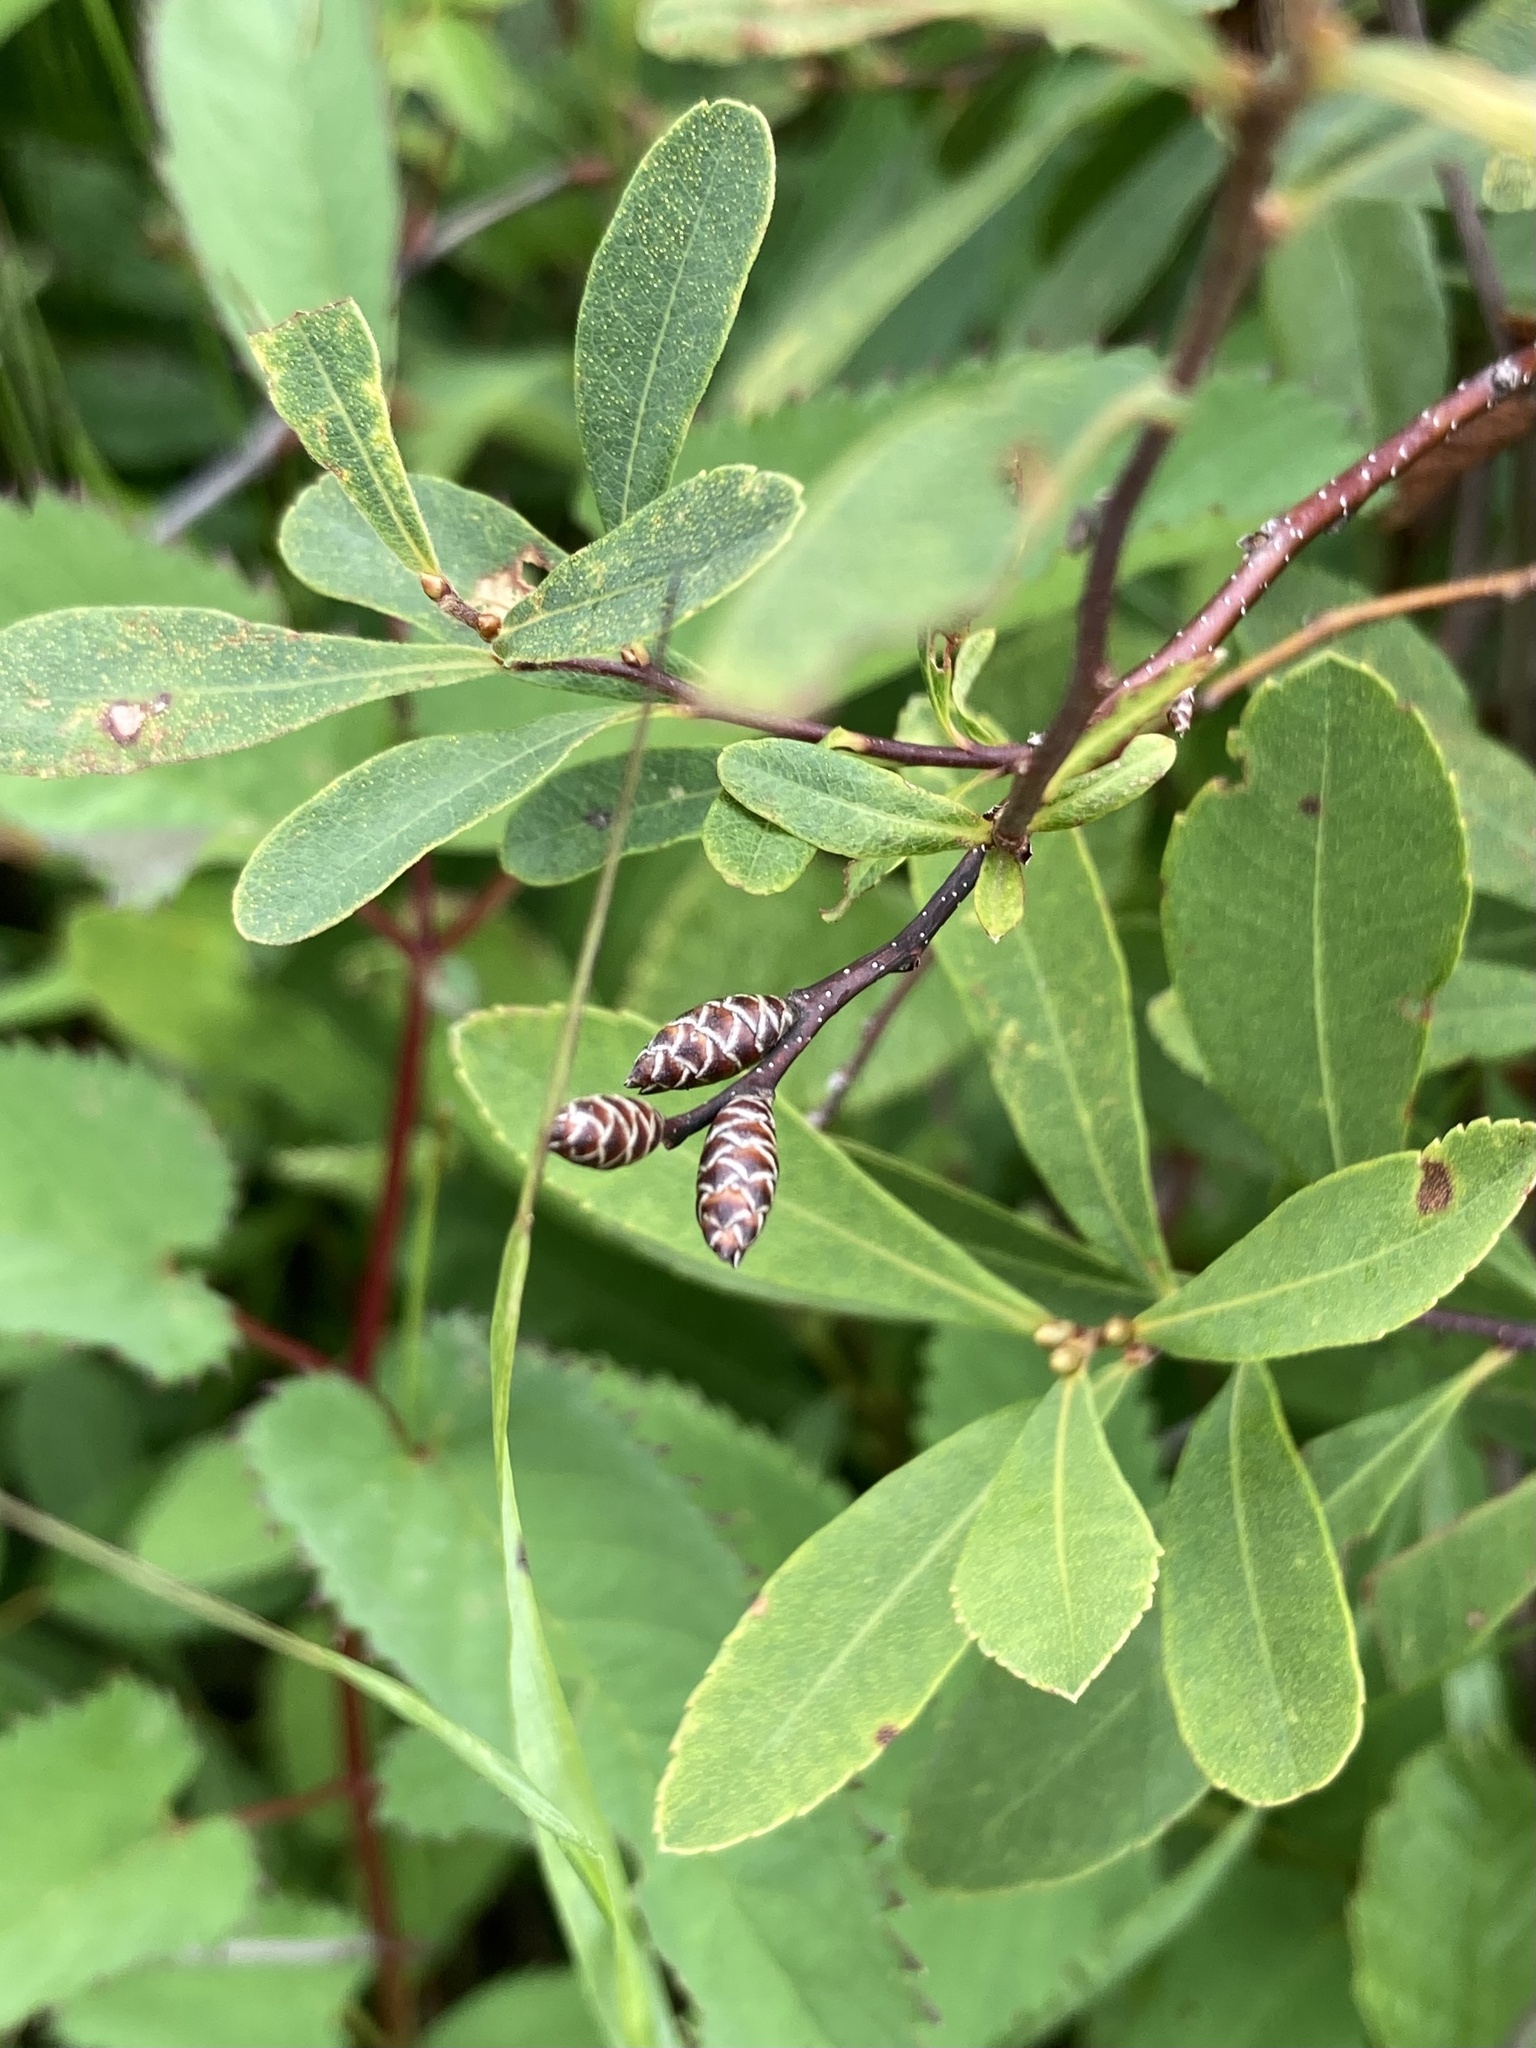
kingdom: Plantae
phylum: Tracheophyta
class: Magnoliopsida
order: Fagales
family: Myricaceae
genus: Myrica
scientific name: Myrica gale
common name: Sweet gale
